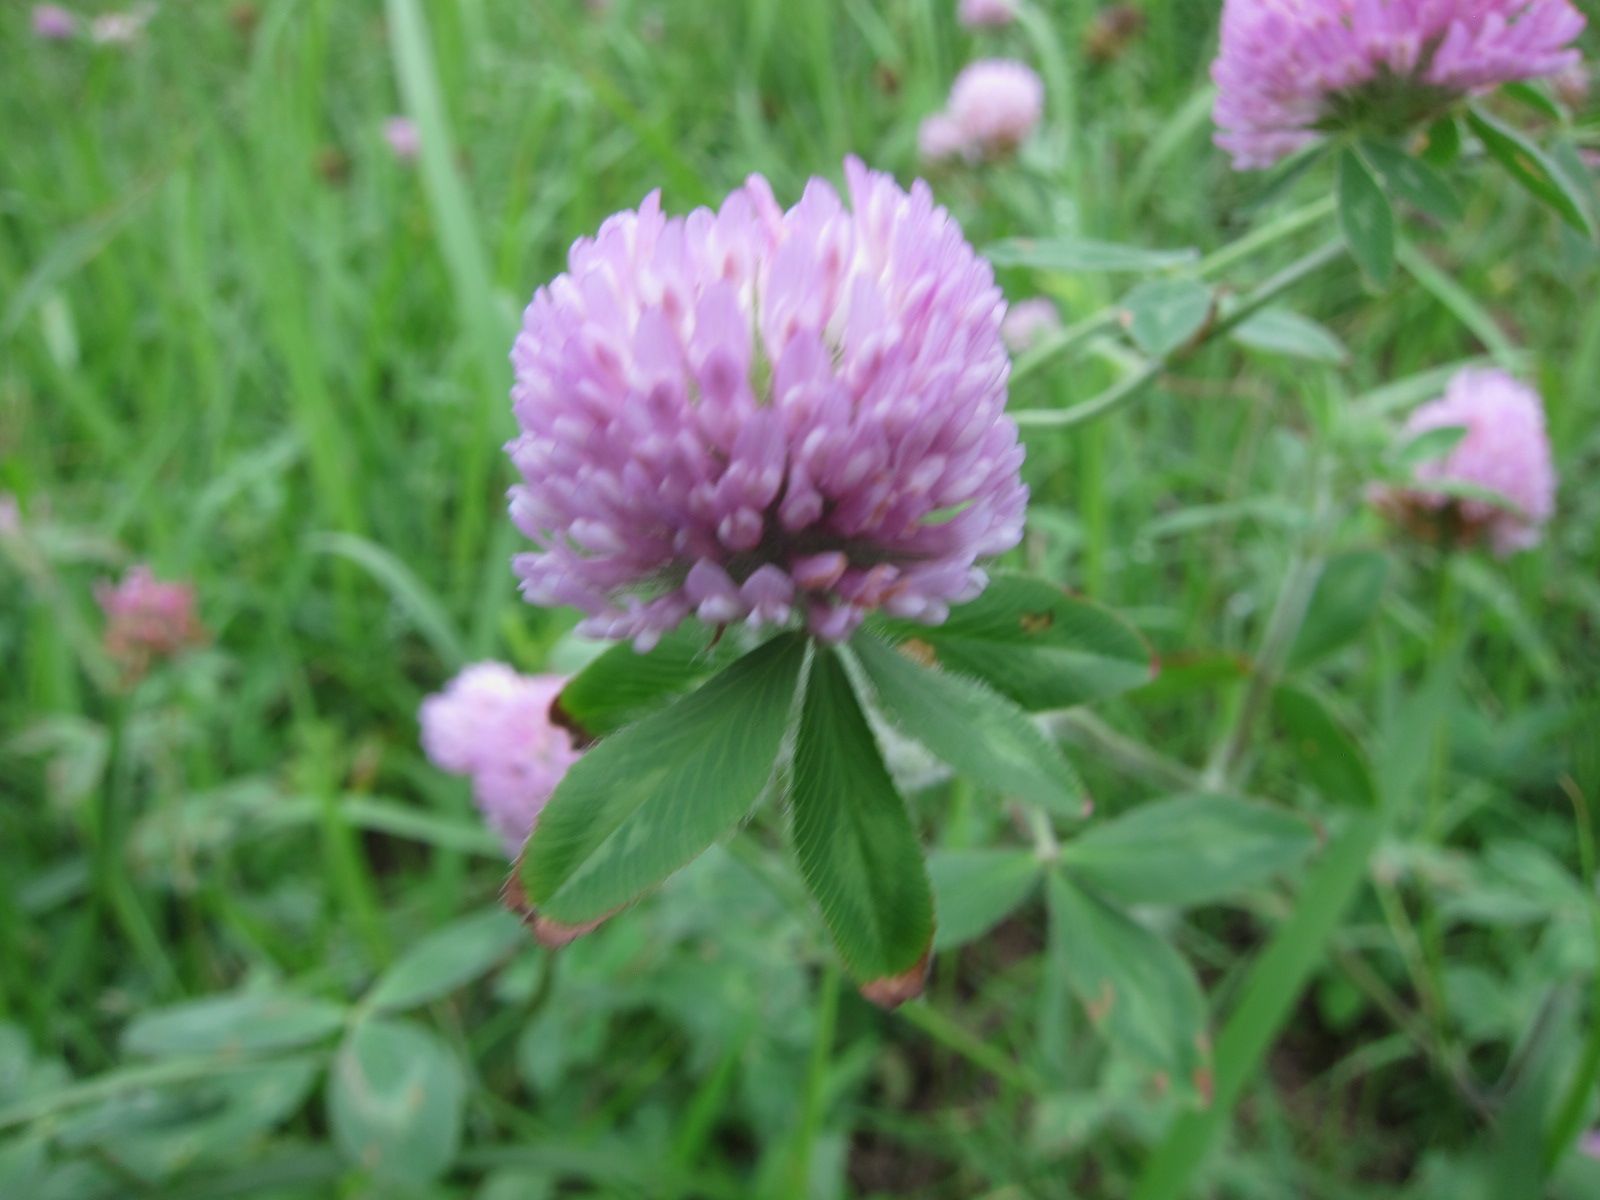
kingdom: Plantae
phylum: Tracheophyta
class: Magnoliopsida
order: Fabales
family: Fabaceae
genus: Trifolium
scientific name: Trifolium pratense
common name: Red clover
